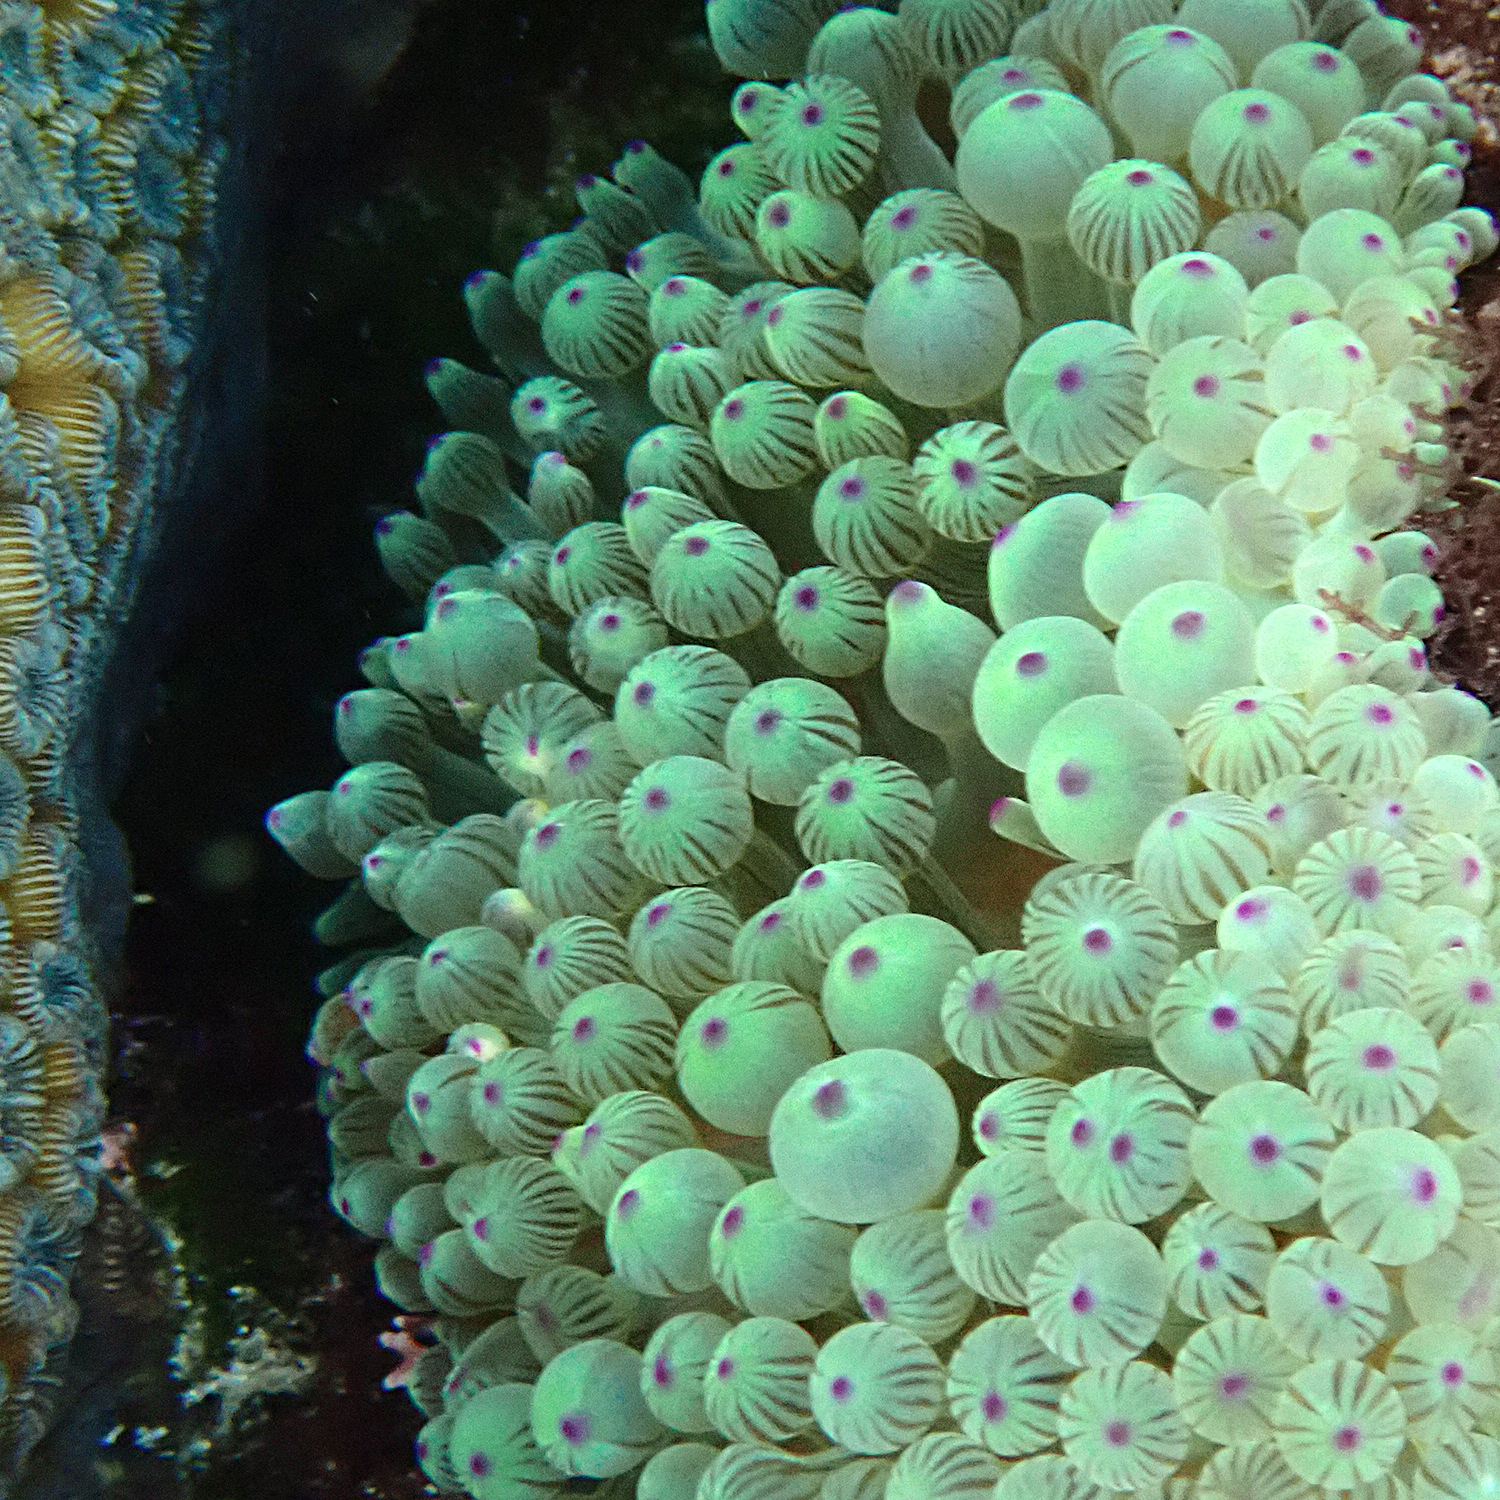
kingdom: Animalia
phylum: Cnidaria
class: Anthozoa
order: Actiniaria
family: Actiniidae
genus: Entacmaea
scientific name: Entacmaea quadricolor
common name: Bulb tentacle sea anemone
